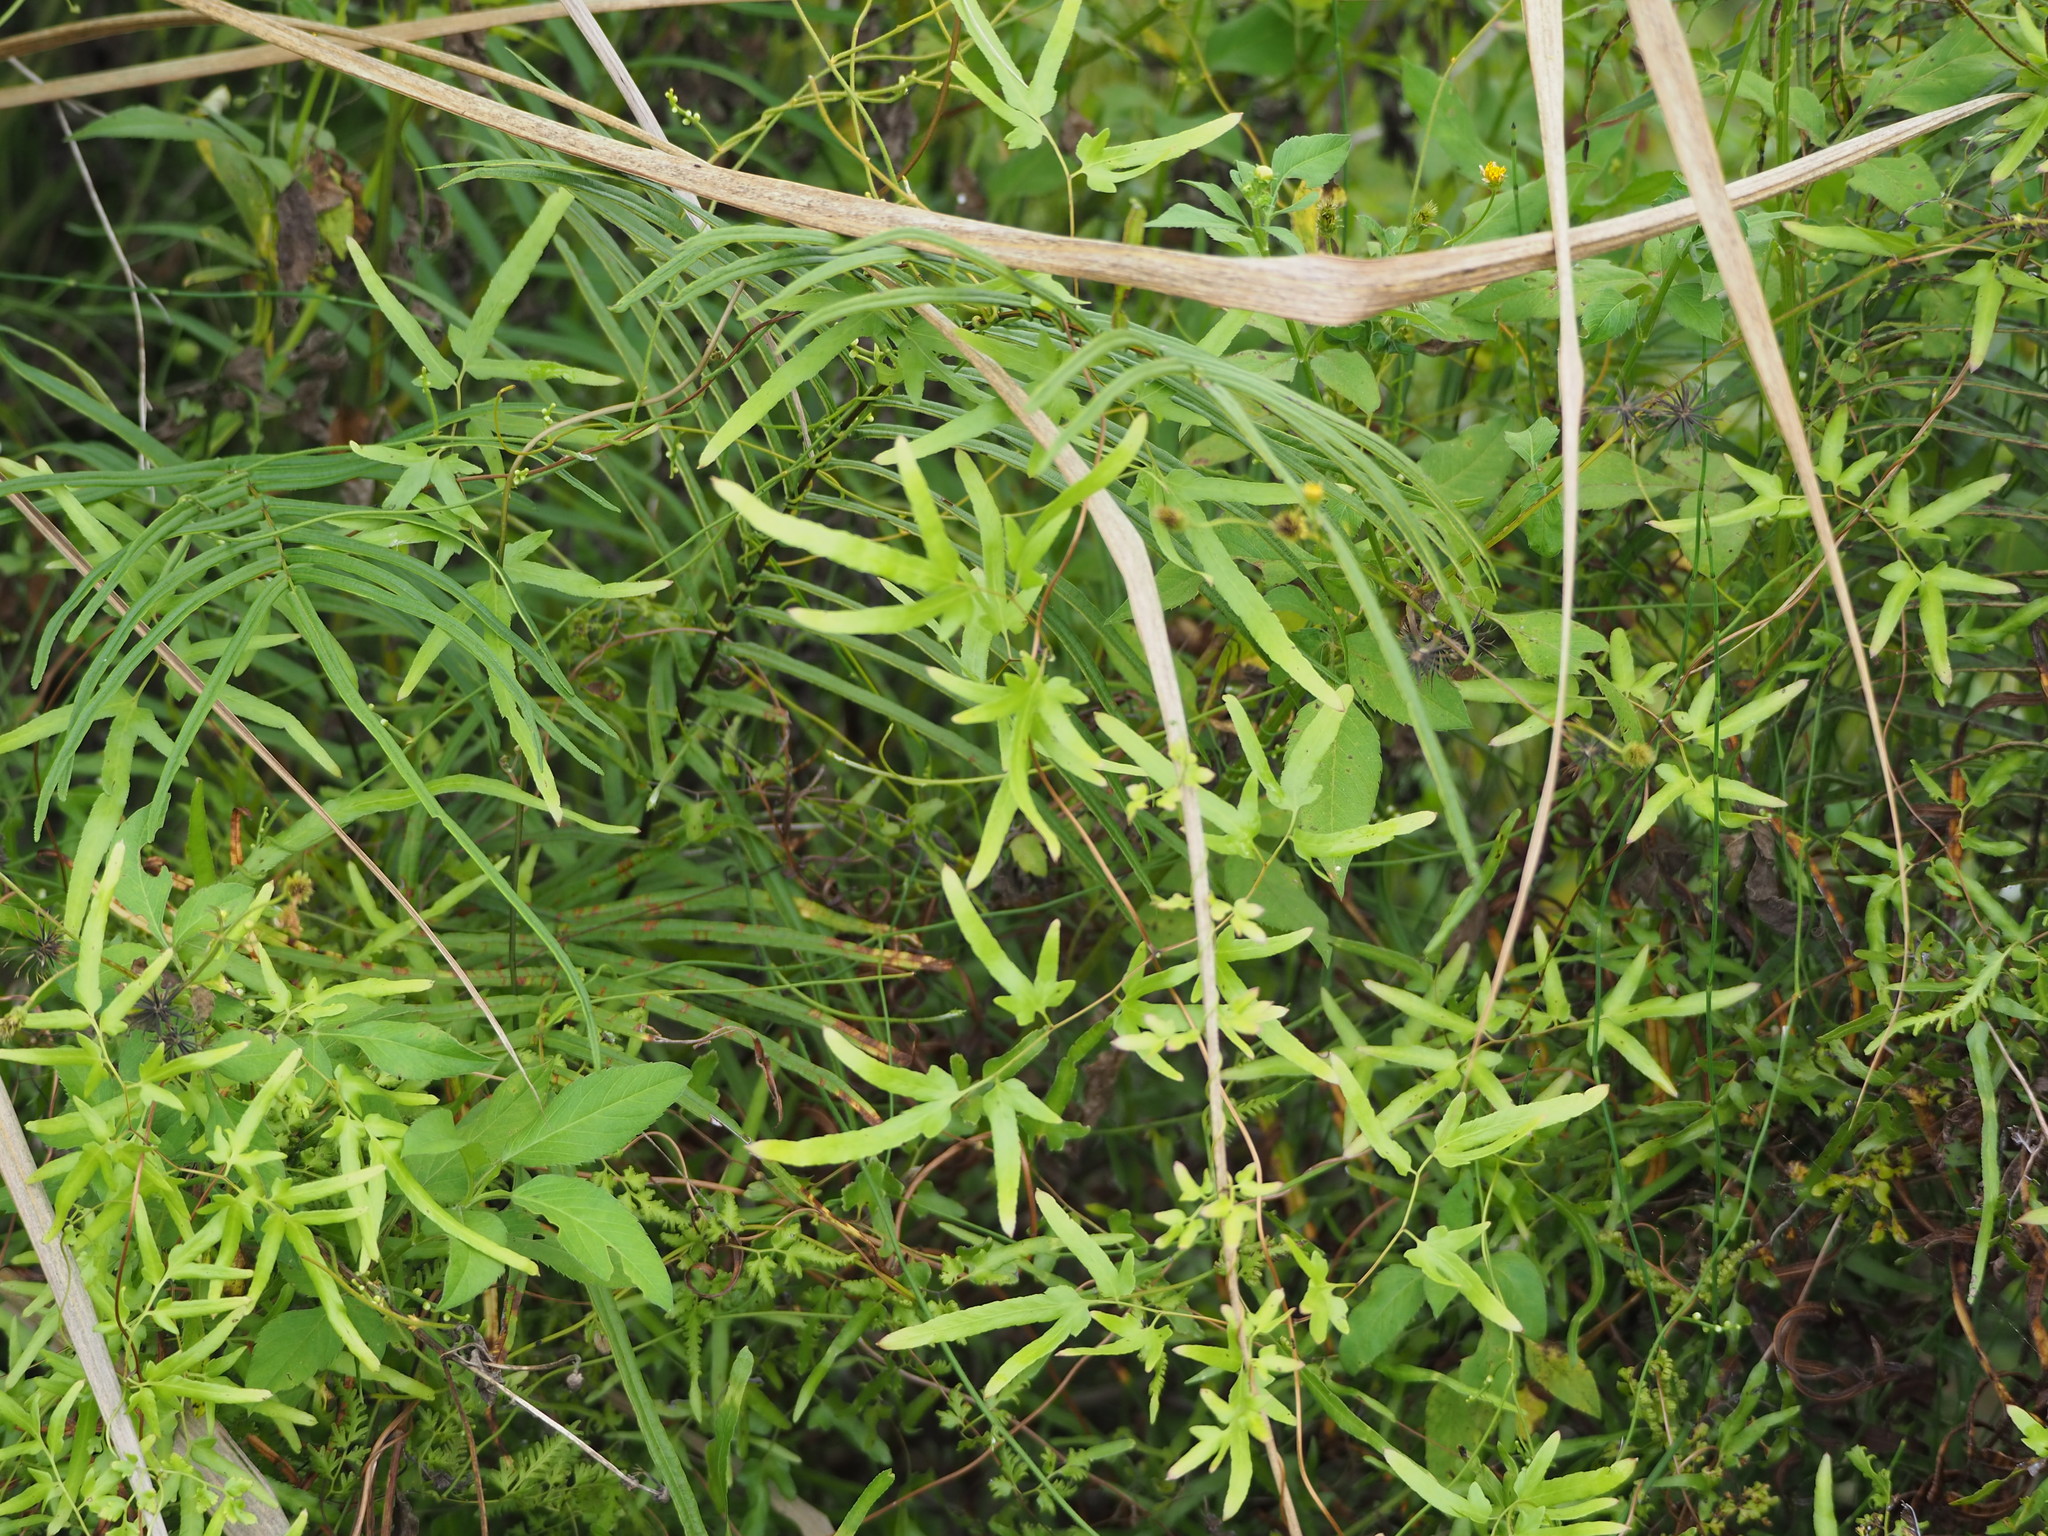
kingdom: Plantae
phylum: Tracheophyta
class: Polypodiopsida
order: Schizaeales
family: Lygodiaceae
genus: Lygodium
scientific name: Lygodium japonicum
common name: Japanese climbing fern
